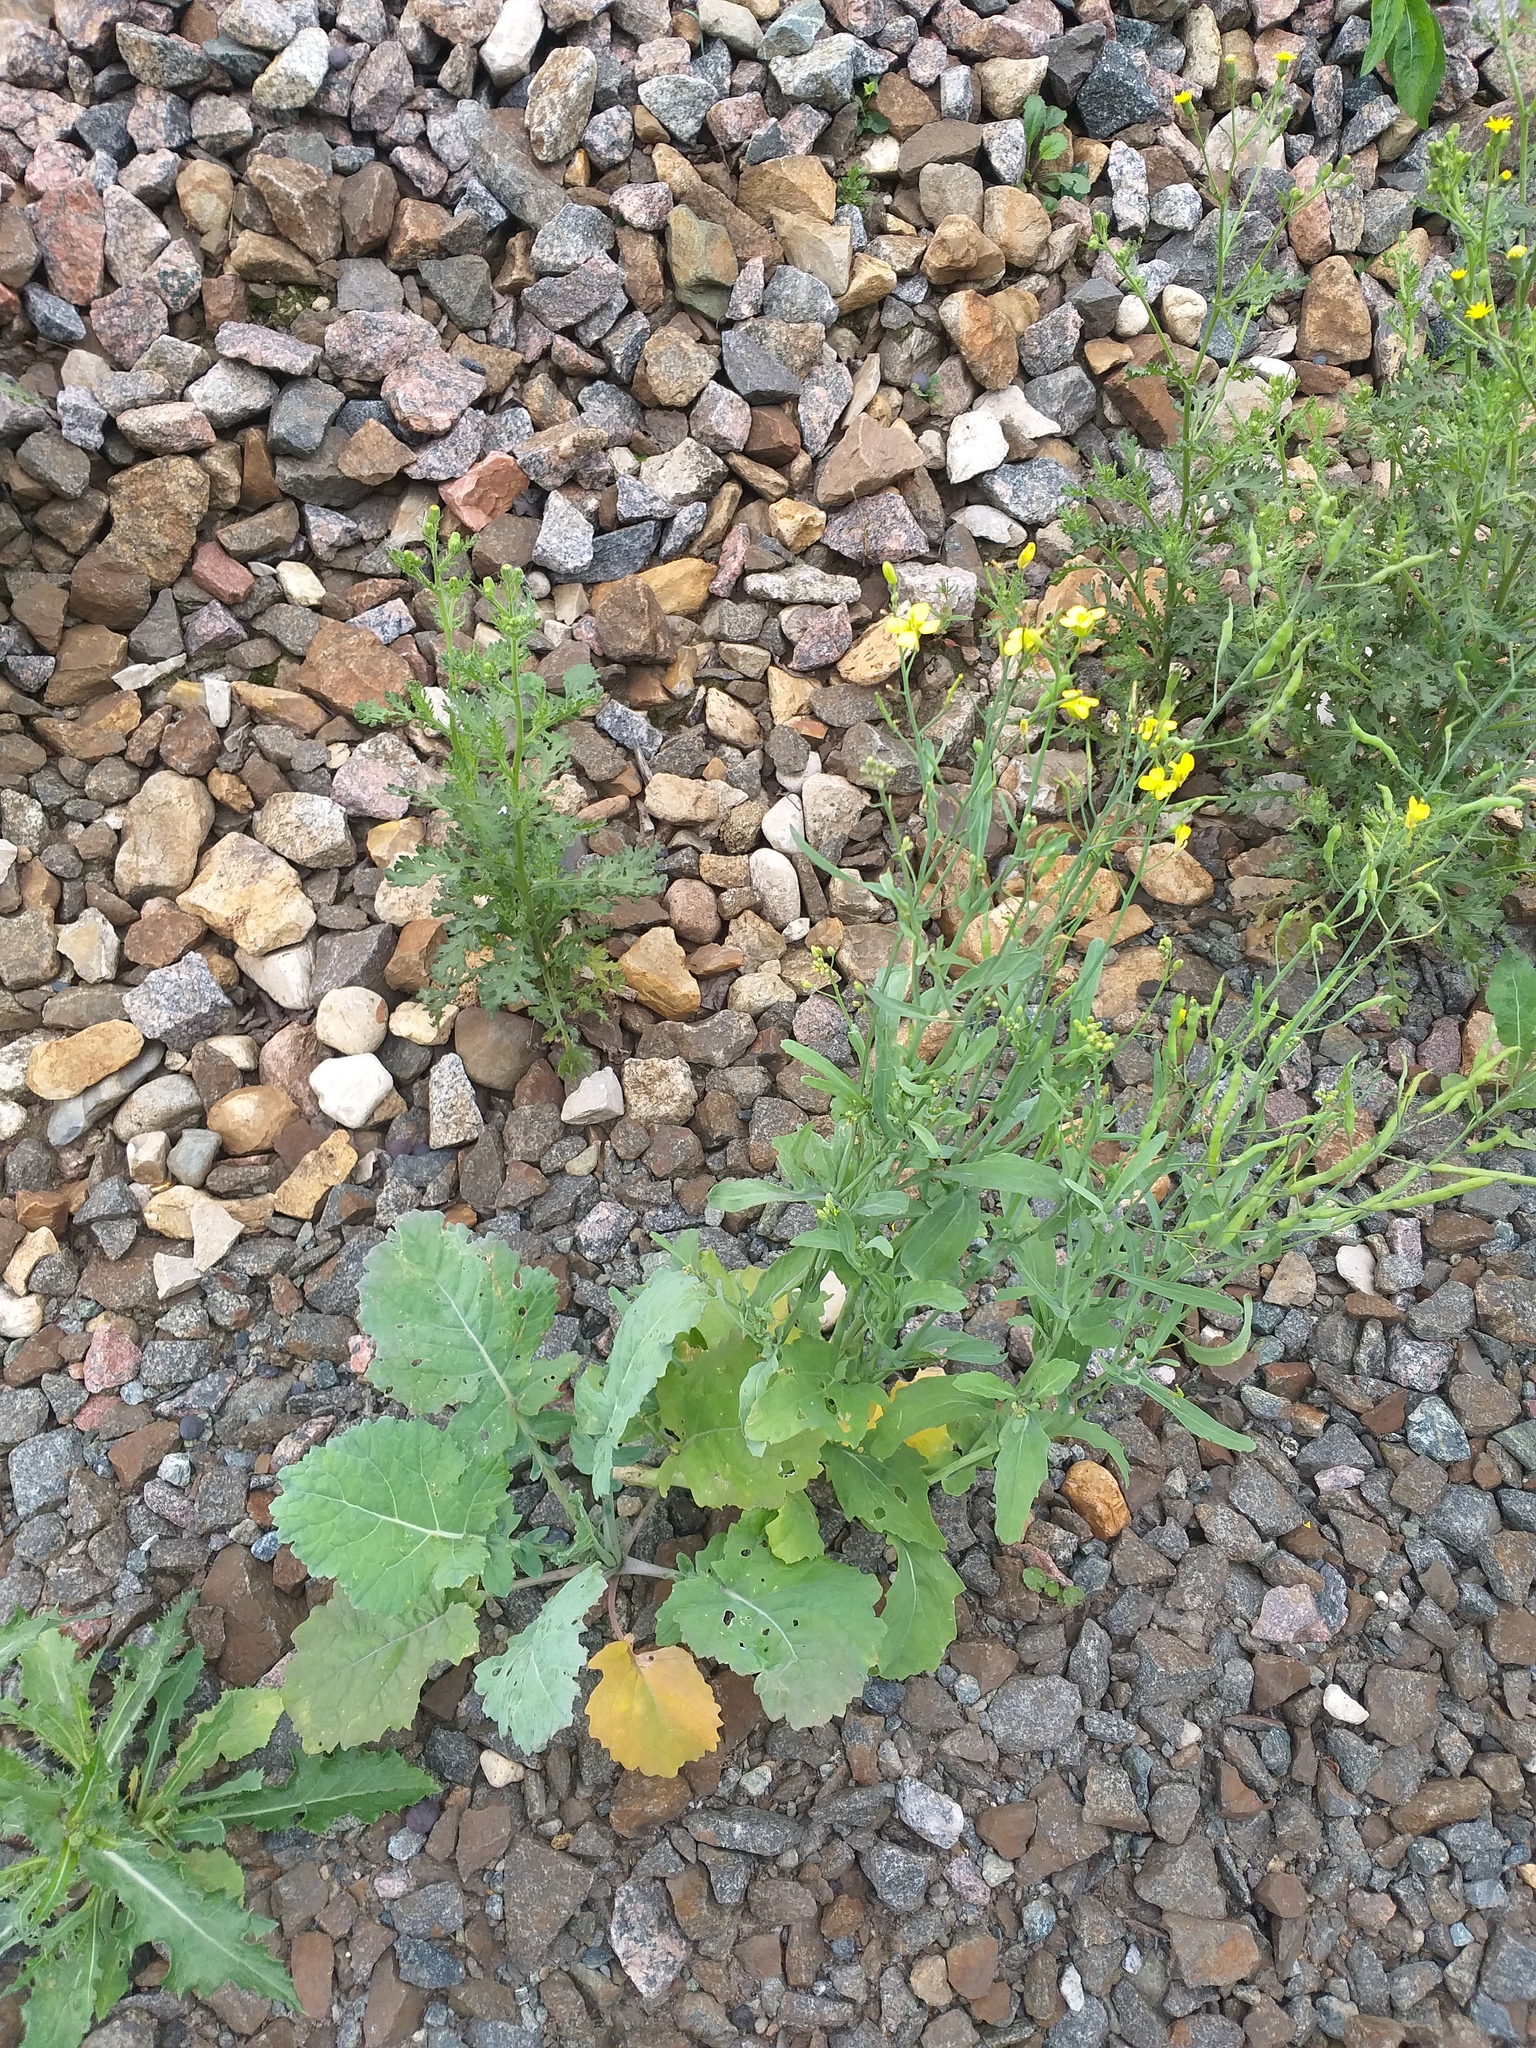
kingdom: Plantae
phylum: Tracheophyta
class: Magnoliopsida
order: Brassicales
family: Brassicaceae
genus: Brassica
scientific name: Brassica napus
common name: Rape
